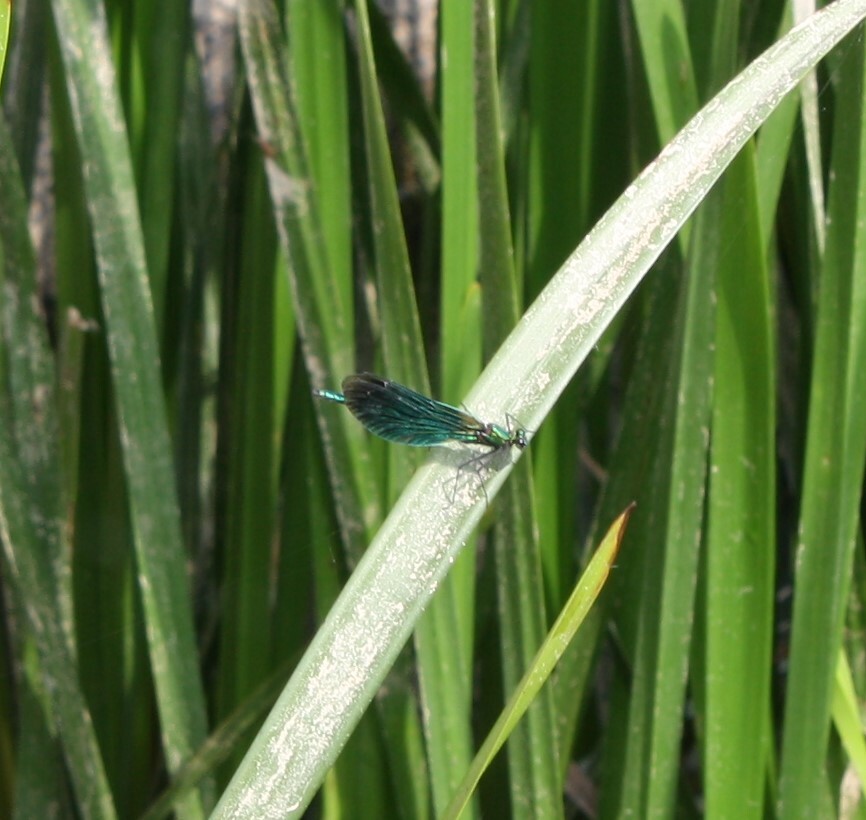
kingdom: Animalia
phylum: Arthropoda
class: Insecta
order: Odonata
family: Calopterygidae
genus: Calopteryx
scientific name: Calopteryx virgo
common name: Beautiful demoiselle
